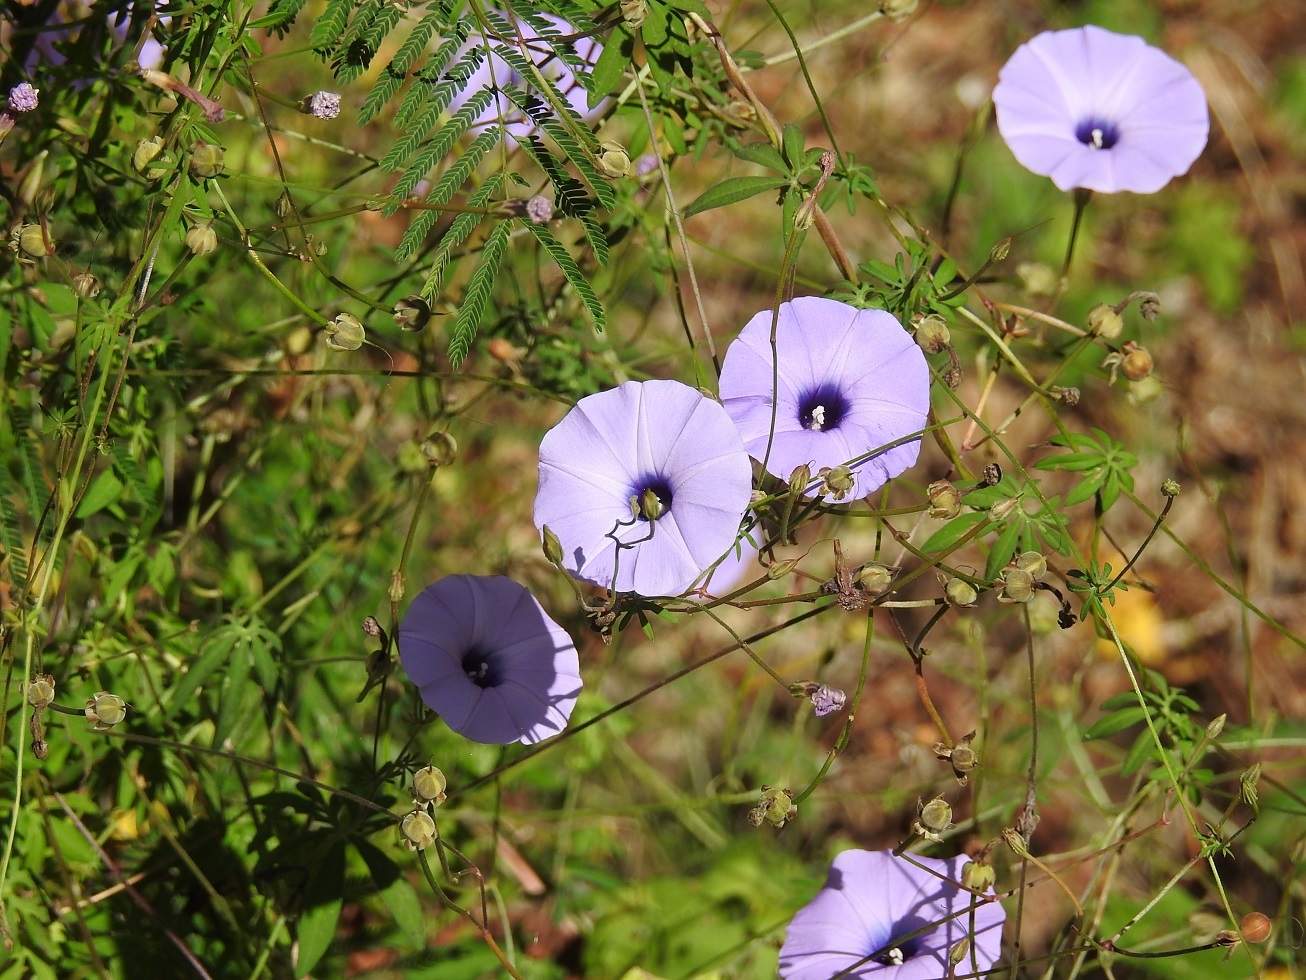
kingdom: Plantae
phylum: Tracheophyta
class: Magnoliopsida
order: Solanales
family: Convolvulaceae
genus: Ipomoea
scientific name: Ipomoea ternifolia
